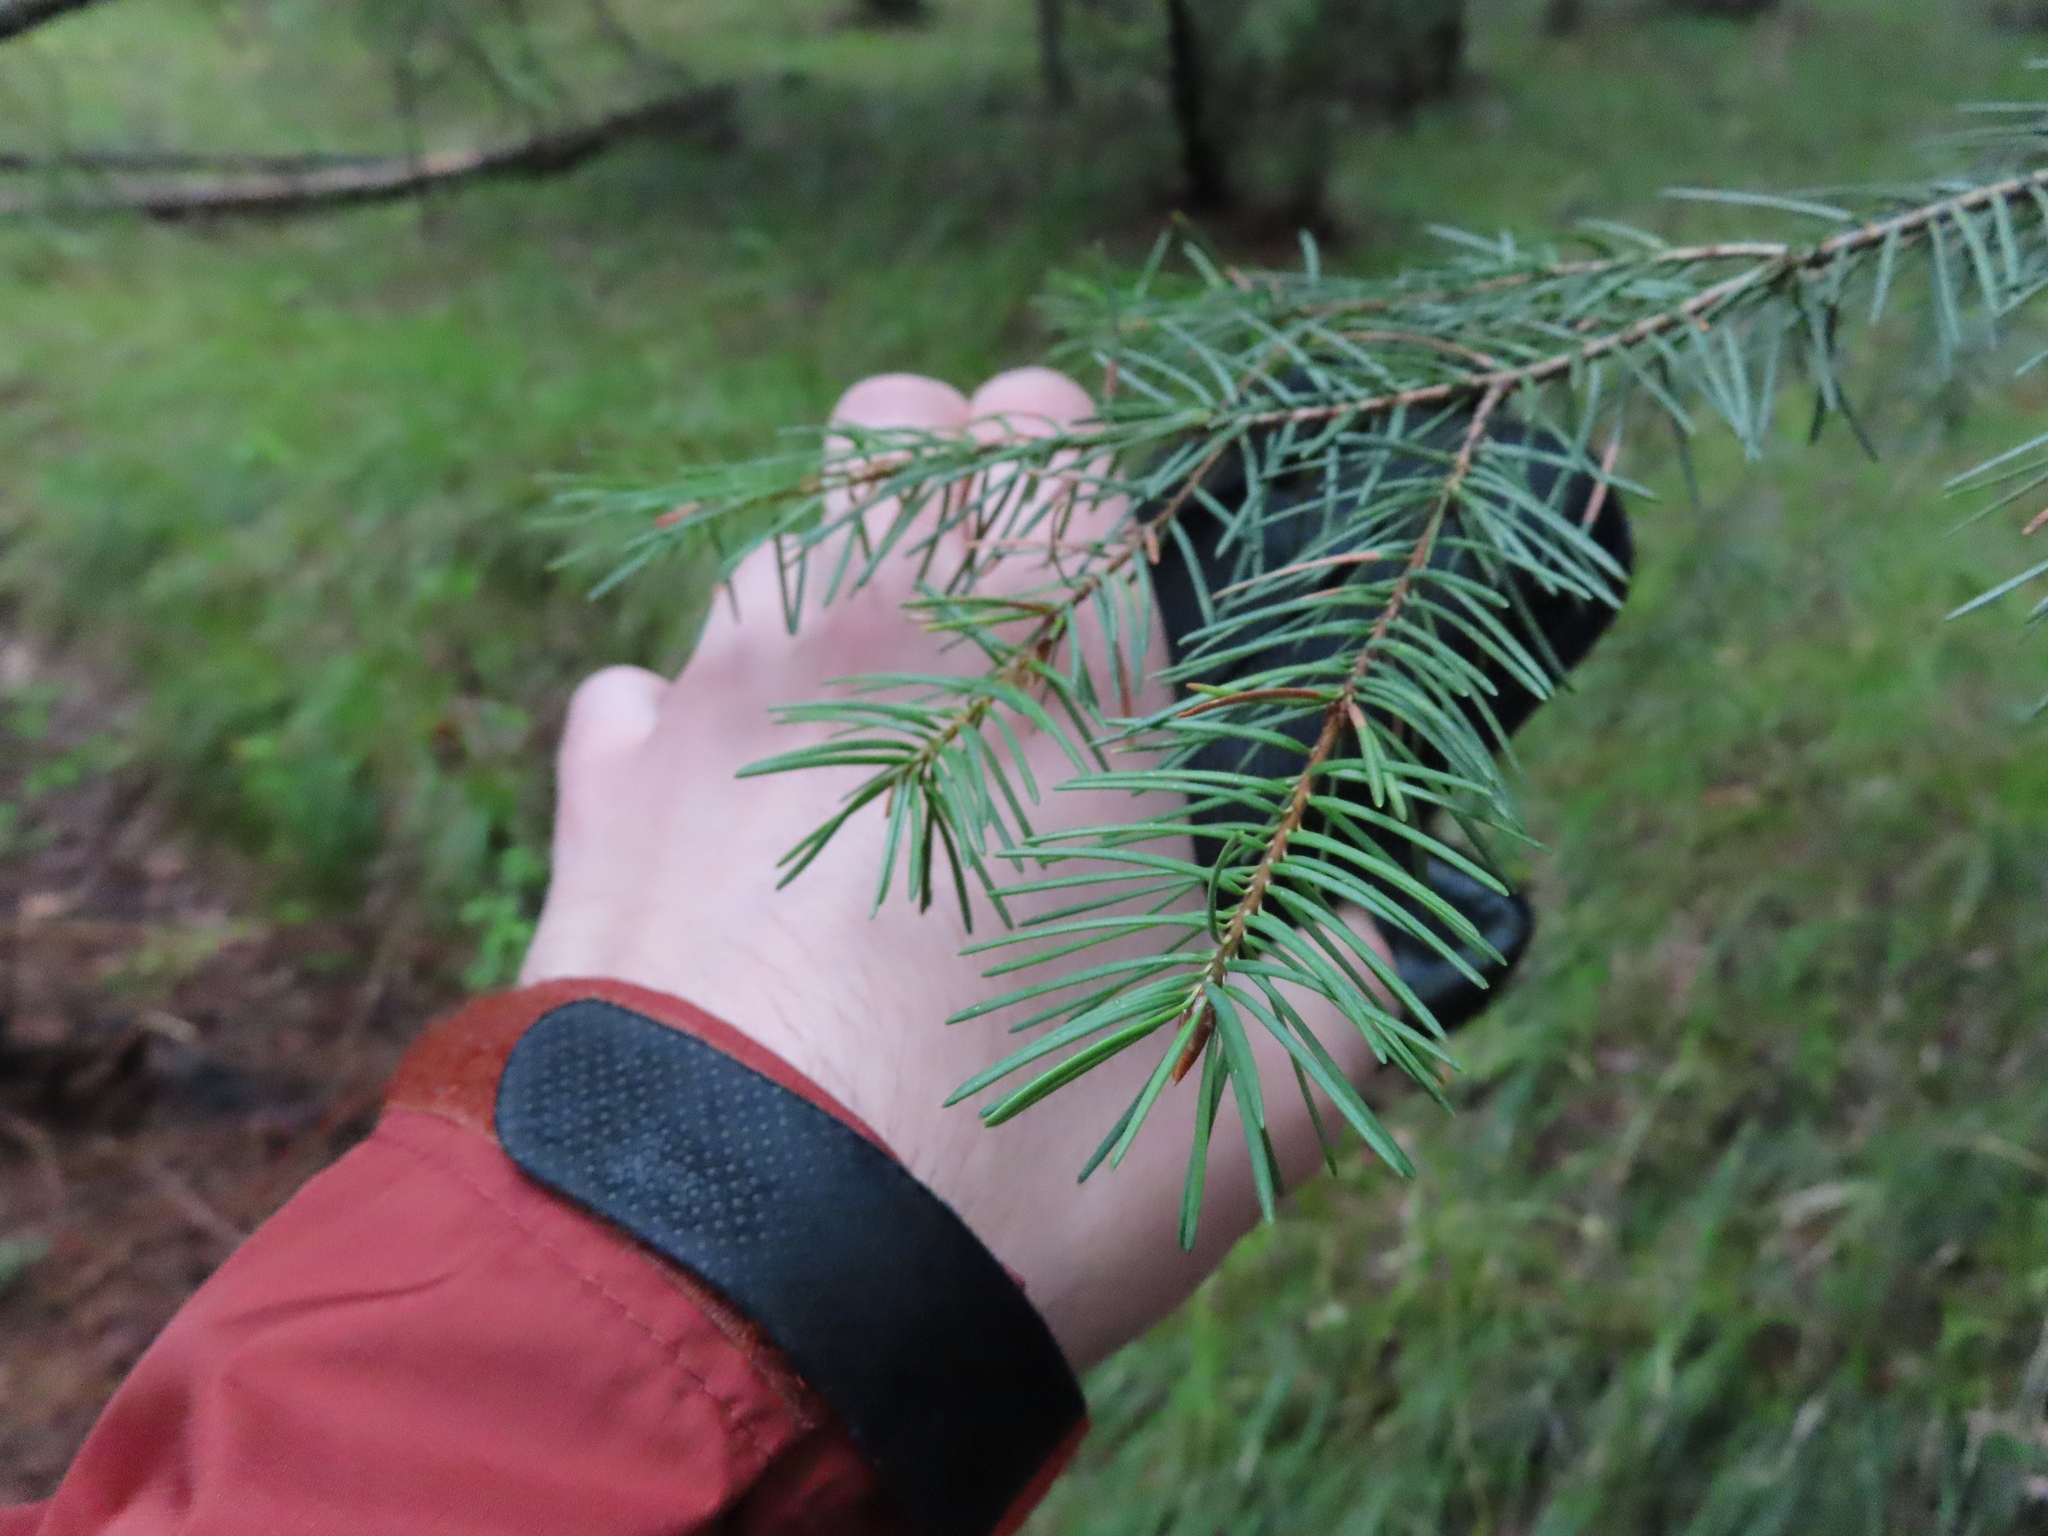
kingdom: Plantae
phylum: Tracheophyta
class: Pinopsida
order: Pinales
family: Pinaceae
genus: Pseudotsuga
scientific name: Pseudotsuga menziesii
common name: Douglas fir
